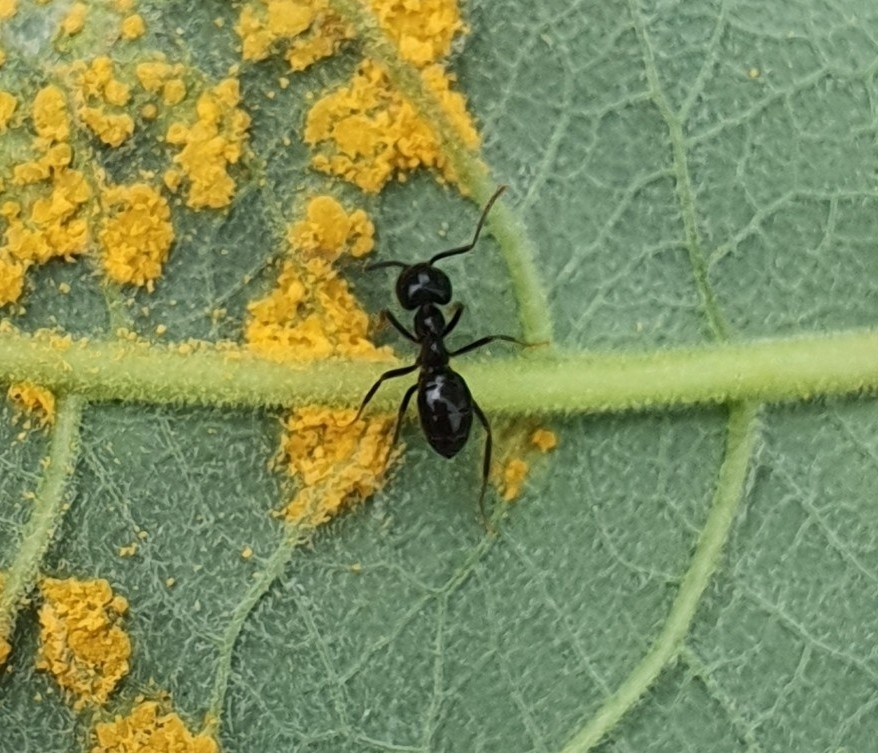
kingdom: Animalia
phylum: Arthropoda
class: Insecta
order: Hymenoptera
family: Formicidae
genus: Lasius
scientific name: Lasius fuliginosus
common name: Jet ant
